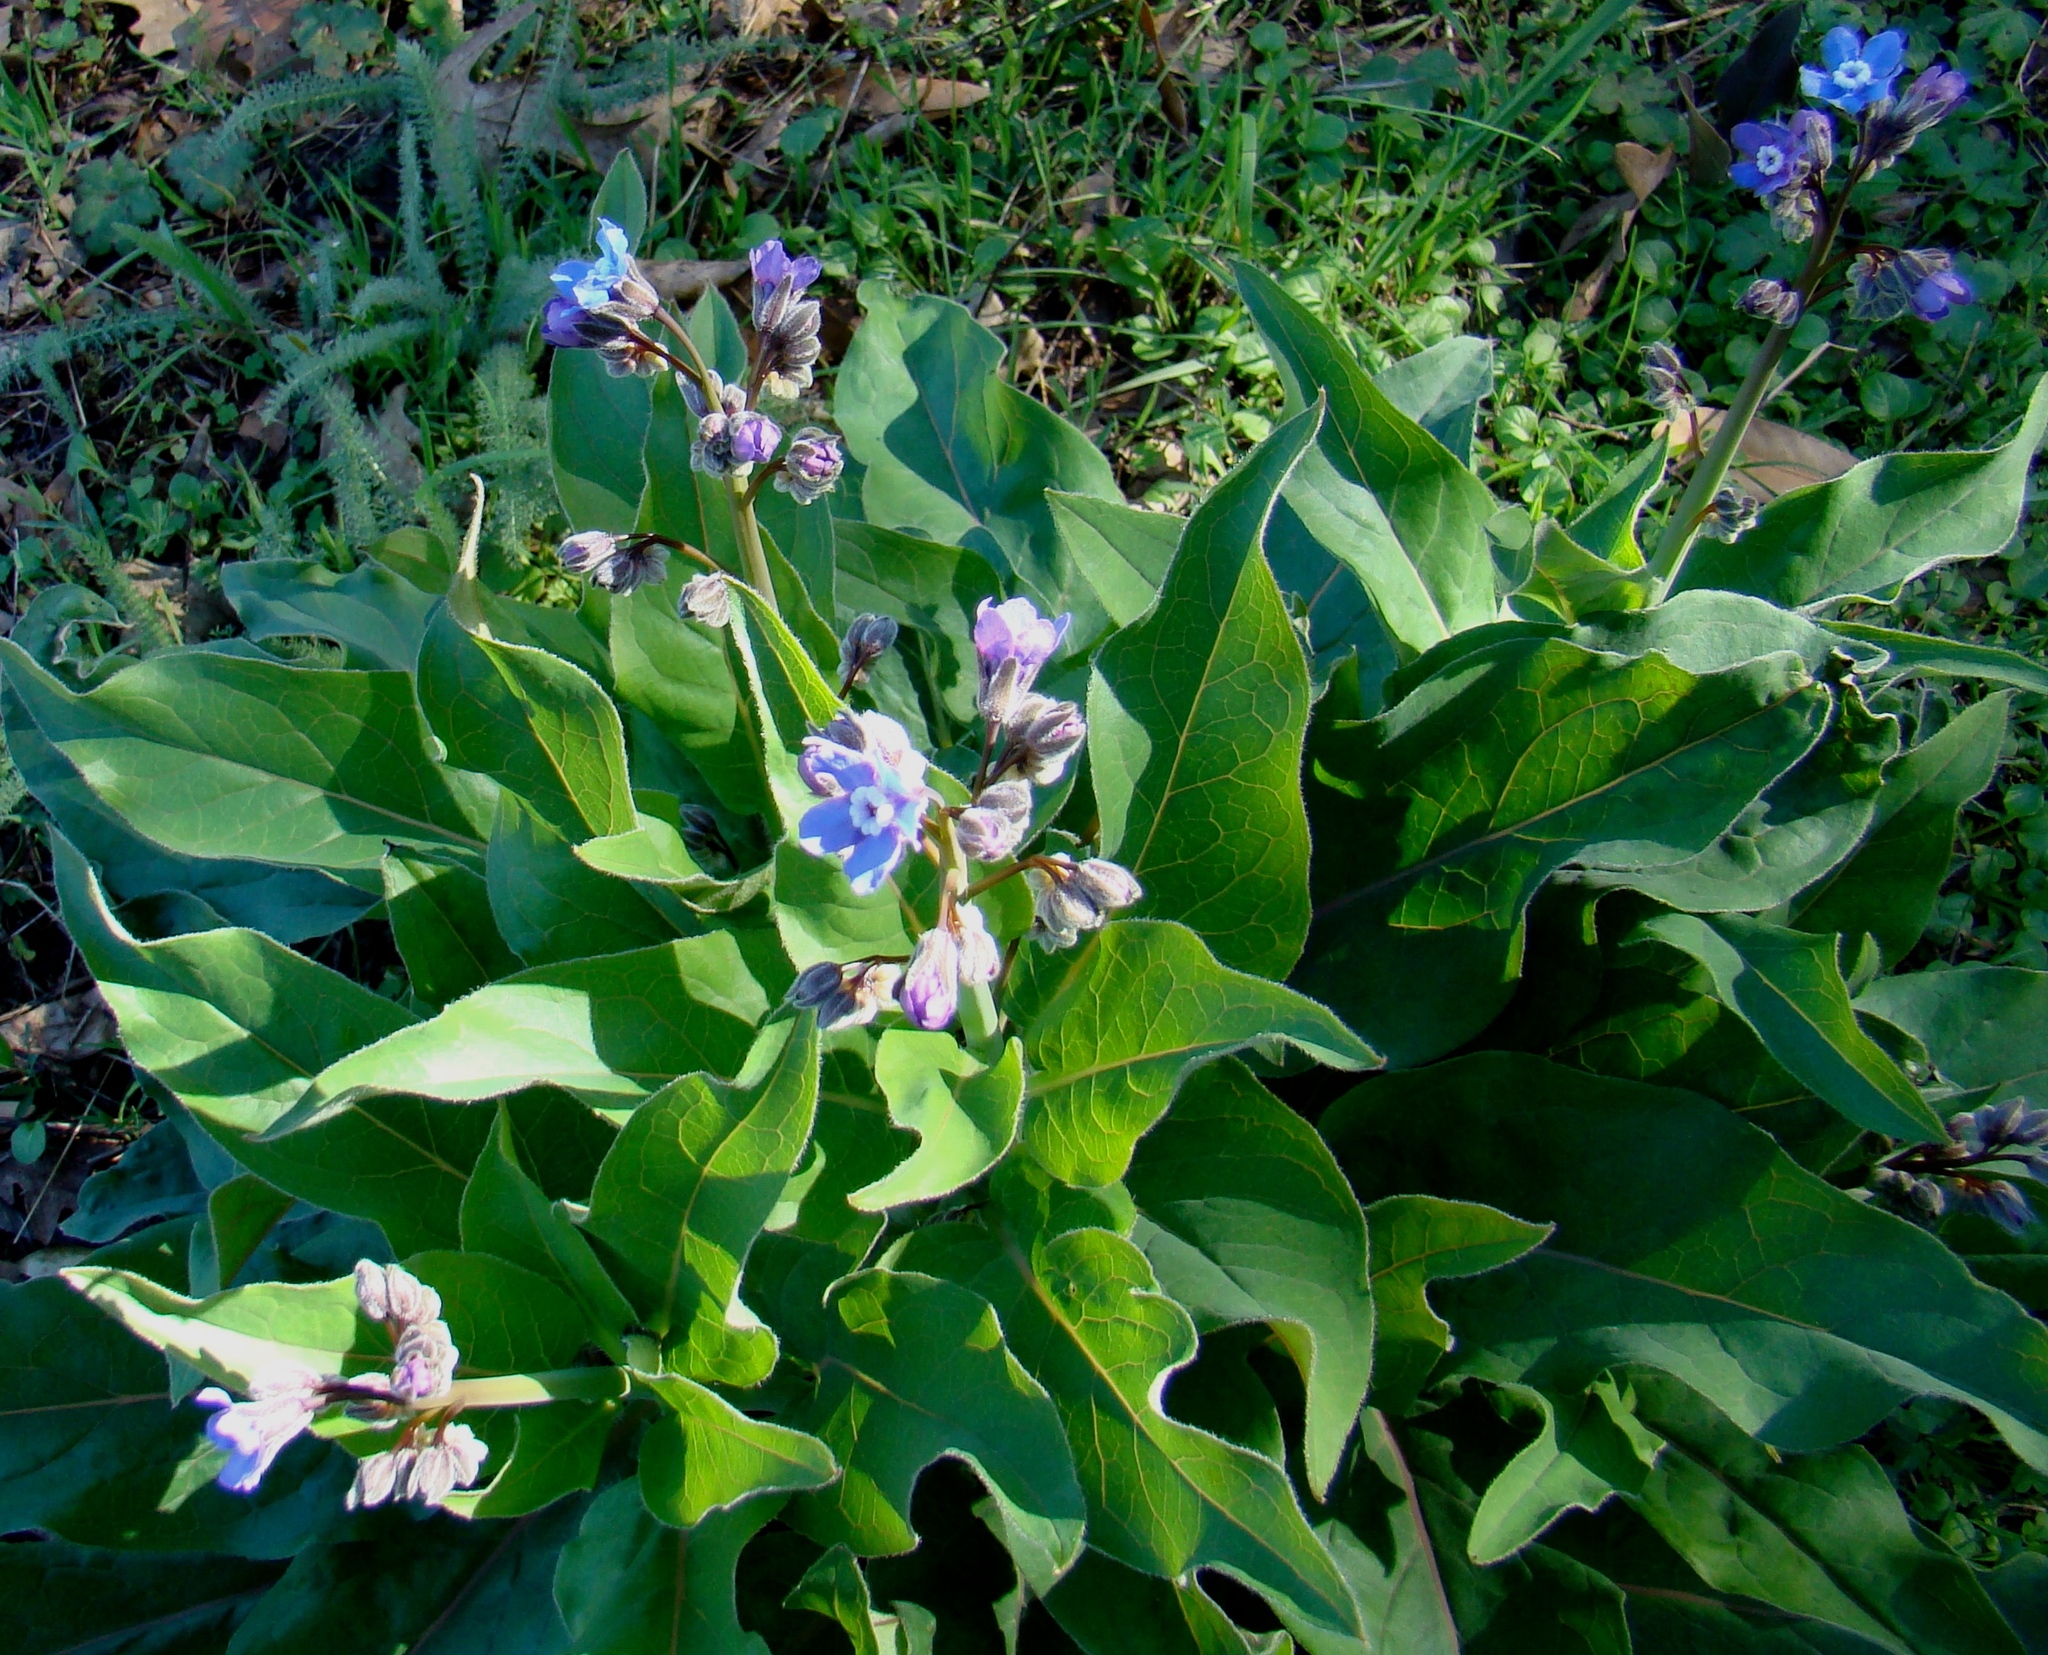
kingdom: Plantae
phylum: Tracheophyta
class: Magnoliopsida
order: Boraginales
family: Boraginaceae
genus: Adelinia
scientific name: Adelinia grande
